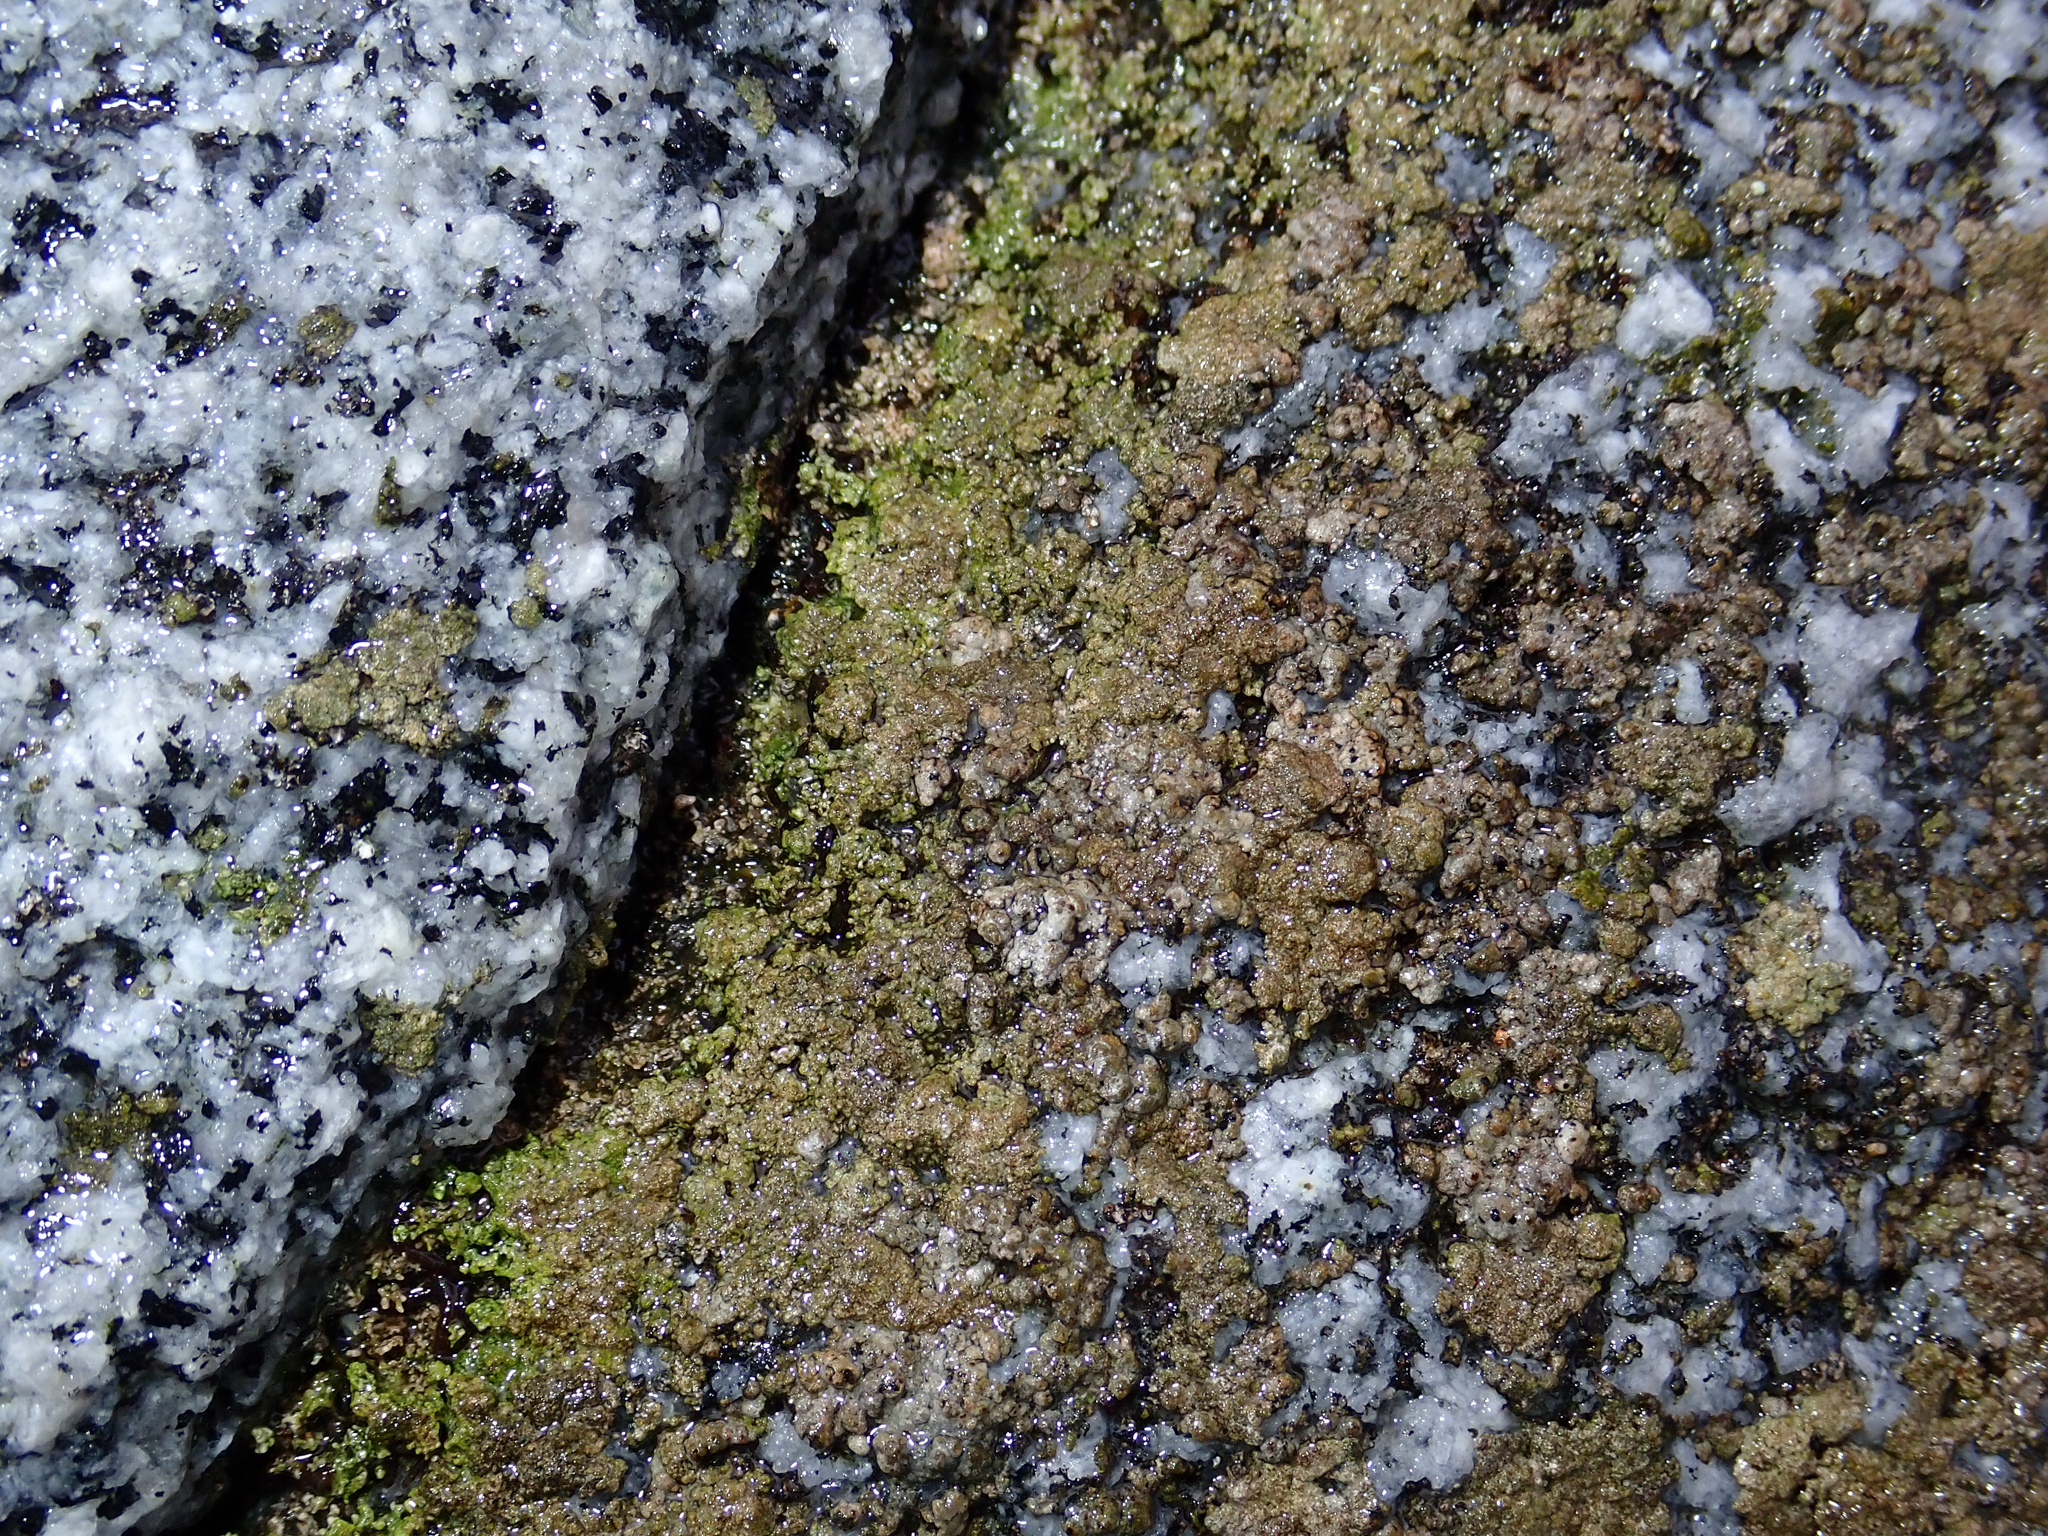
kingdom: Animalia
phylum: Arthropoda
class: Insecta
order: Diptera
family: Chironomidae
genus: Belgica
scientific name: Belgica antarctica
